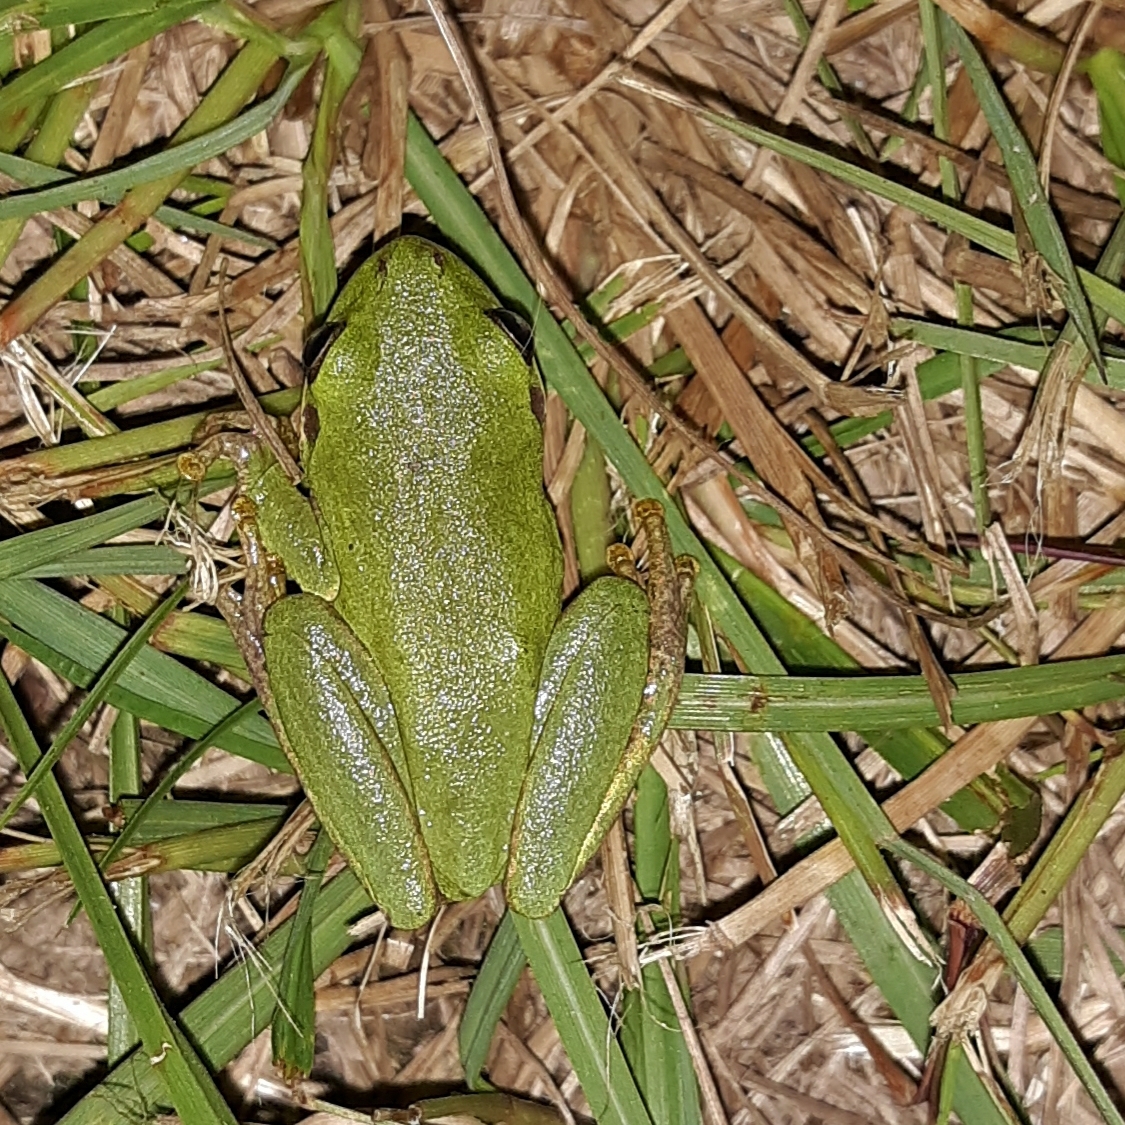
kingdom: Animalia
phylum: Chordata
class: Amphibia
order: Anura
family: Hylidae
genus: Dryophytes
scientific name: Dryophytes squirellus
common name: Squirrel treefrog
